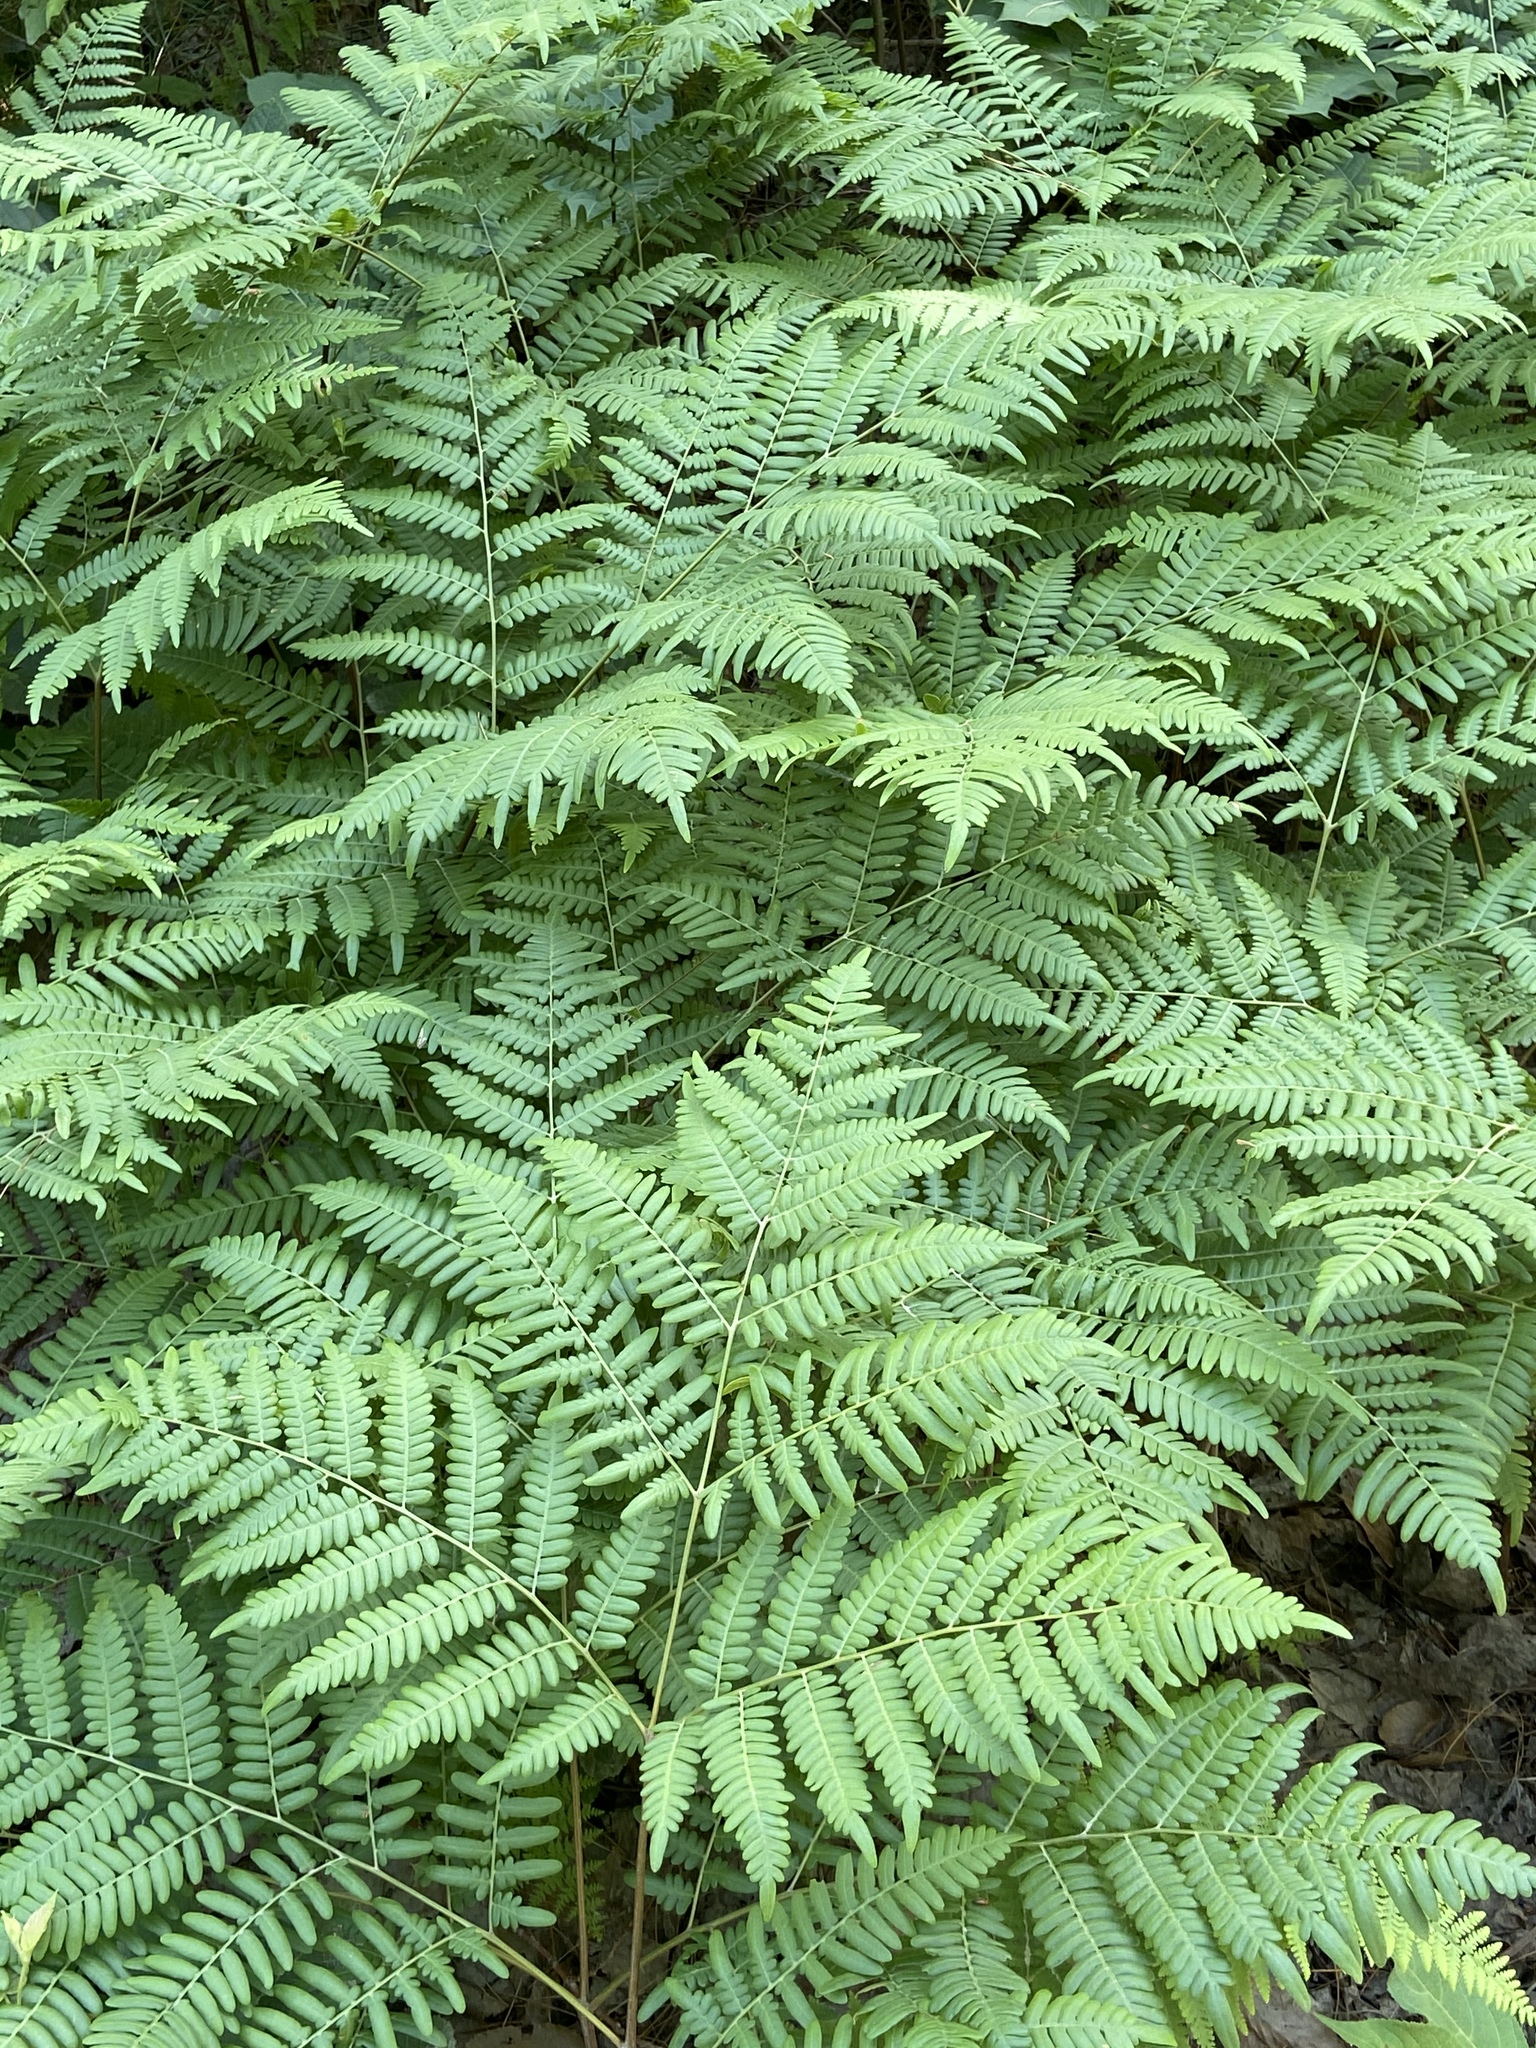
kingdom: Plantae
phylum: Tracheophyta
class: Polypodiopsida
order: Polypodiales
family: Dennstaedtiaceae
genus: Pteridium
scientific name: Pteridium aquilinum
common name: Bracken
